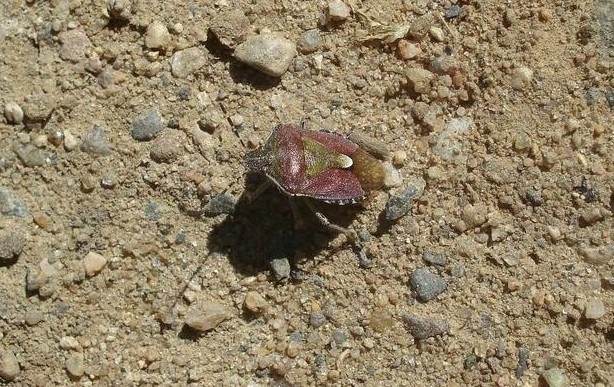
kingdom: Animalia
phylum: Arthropoda
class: Insecta
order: Hemiptera
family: Pentatomidae
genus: Dolycoris
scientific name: Dolycoris baccarum
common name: Sloe bug
